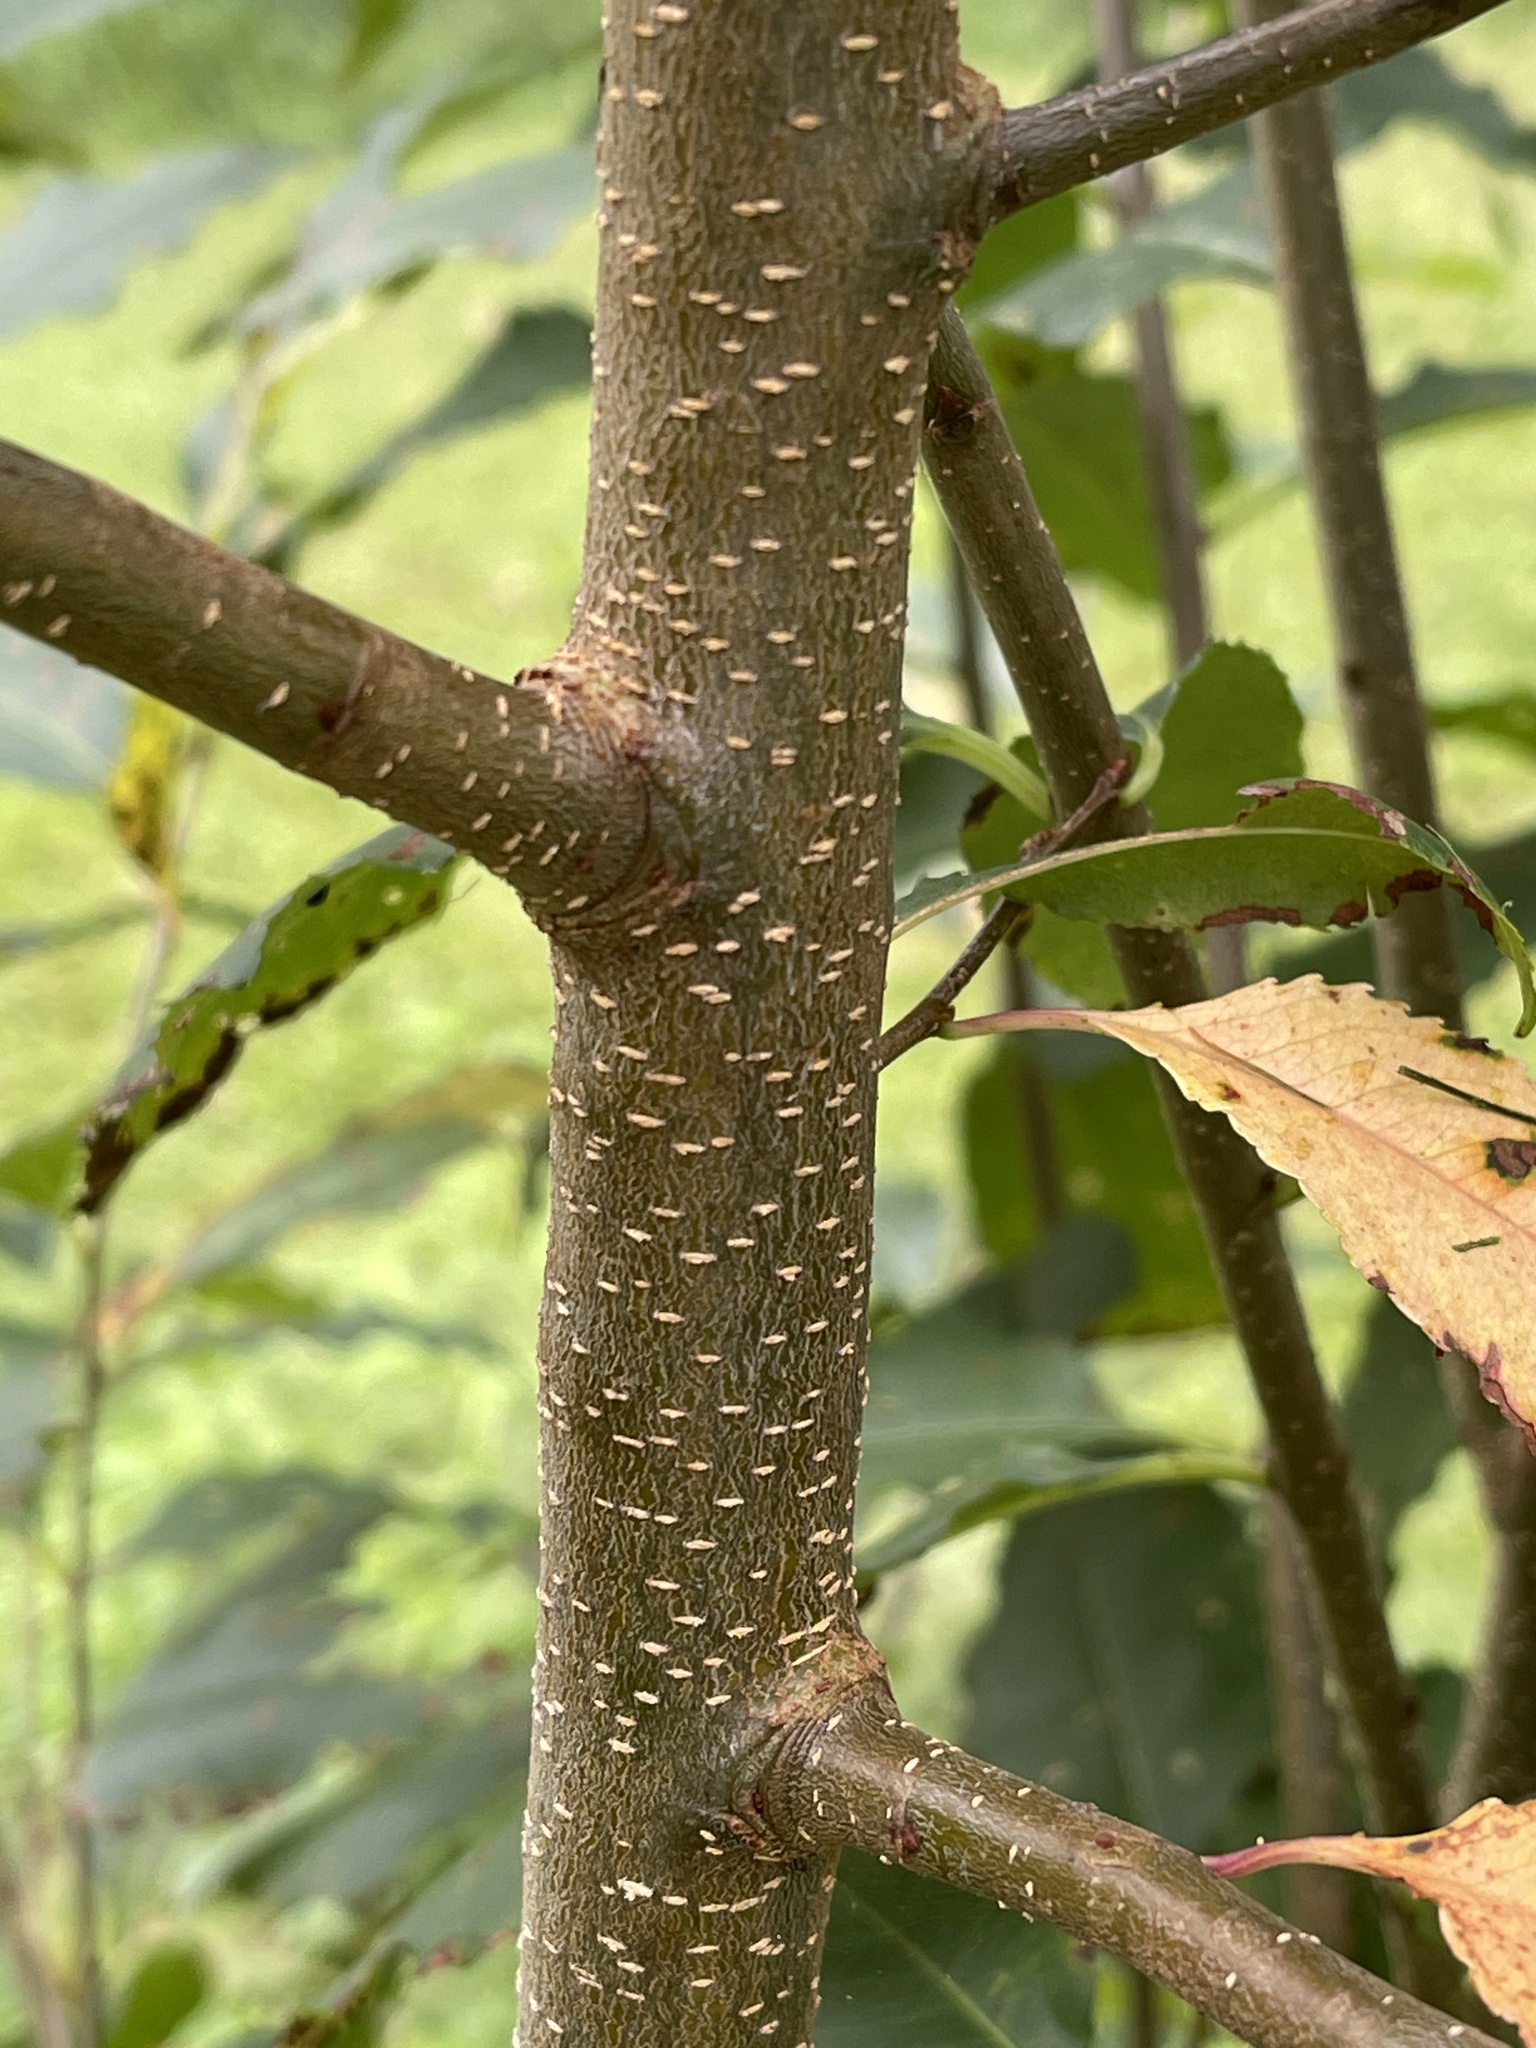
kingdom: Plantae
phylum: Tracheophyta
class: Magnoliopsida
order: Rosales
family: Rosaceae
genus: Prunus
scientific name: Prunus serotina
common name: Black cherry
